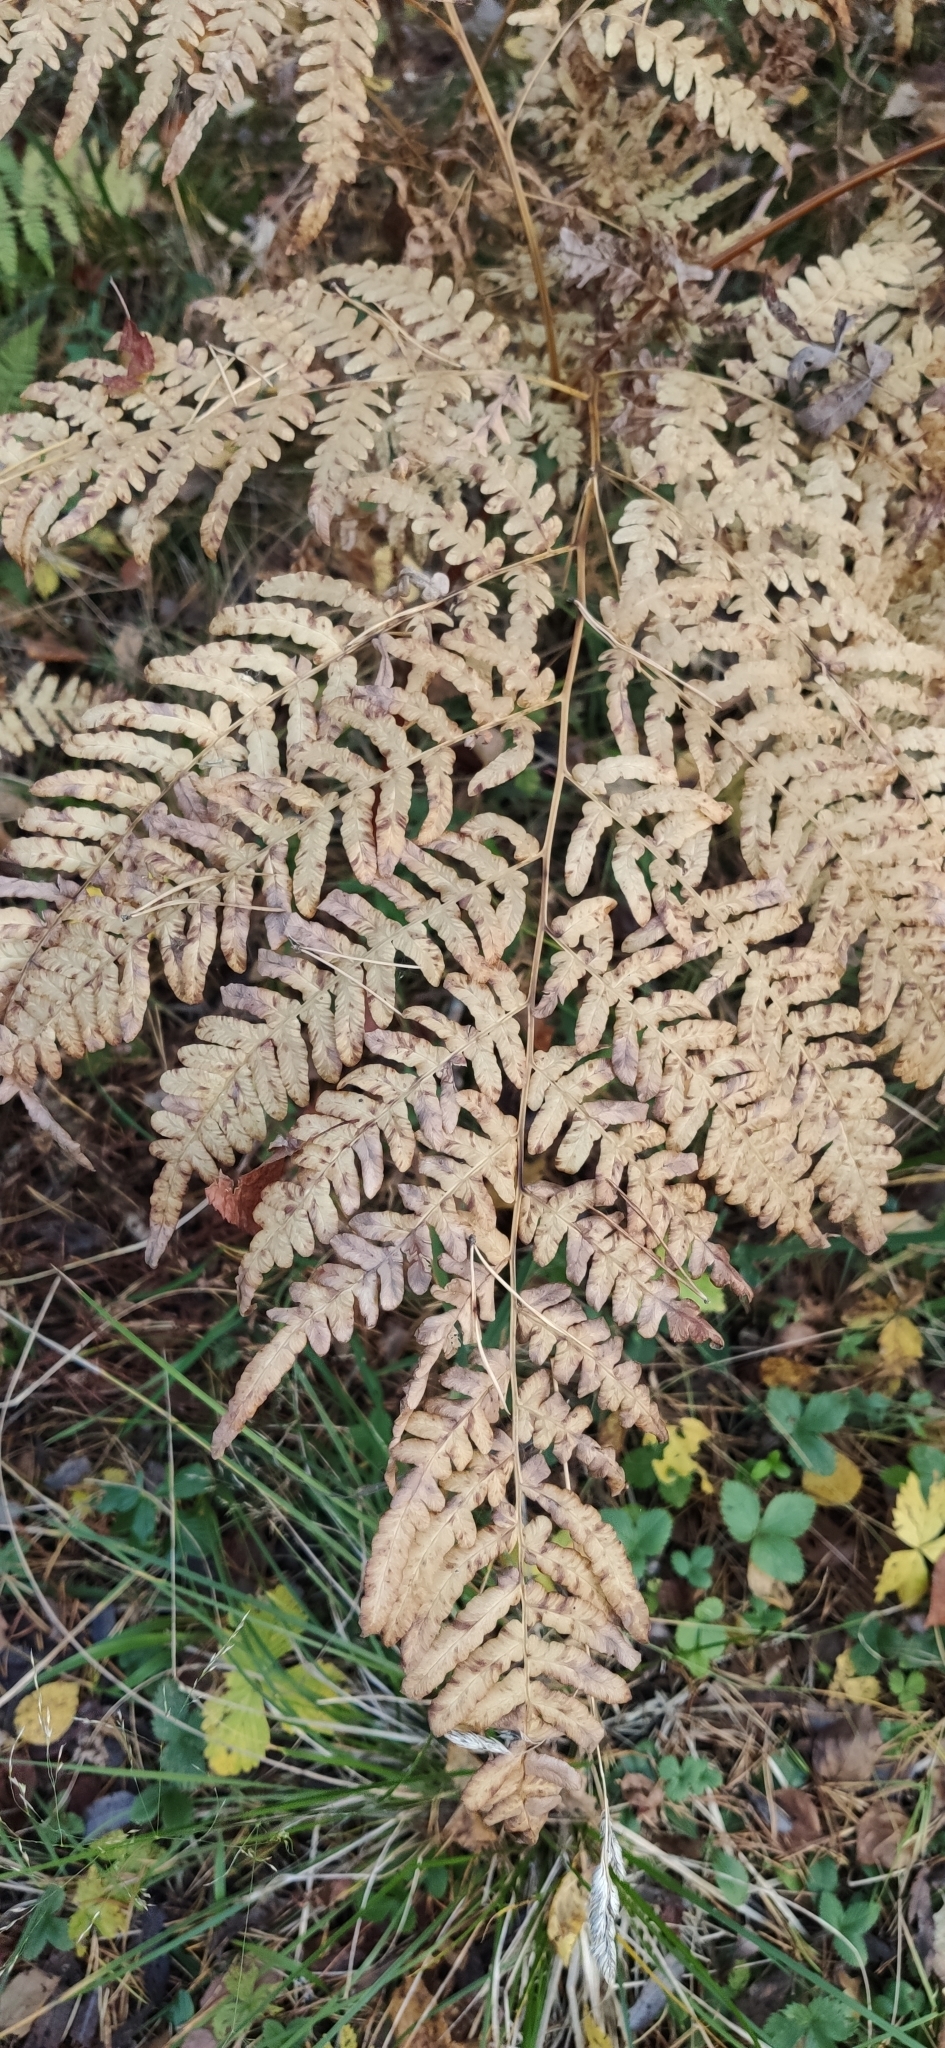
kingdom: Plantae
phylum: Tracheophyta
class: Polypodiopsida
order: Polypodiales
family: Dennstaedtiaceae
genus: Pteridium
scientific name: Pteridium aquilinum
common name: Bracken
